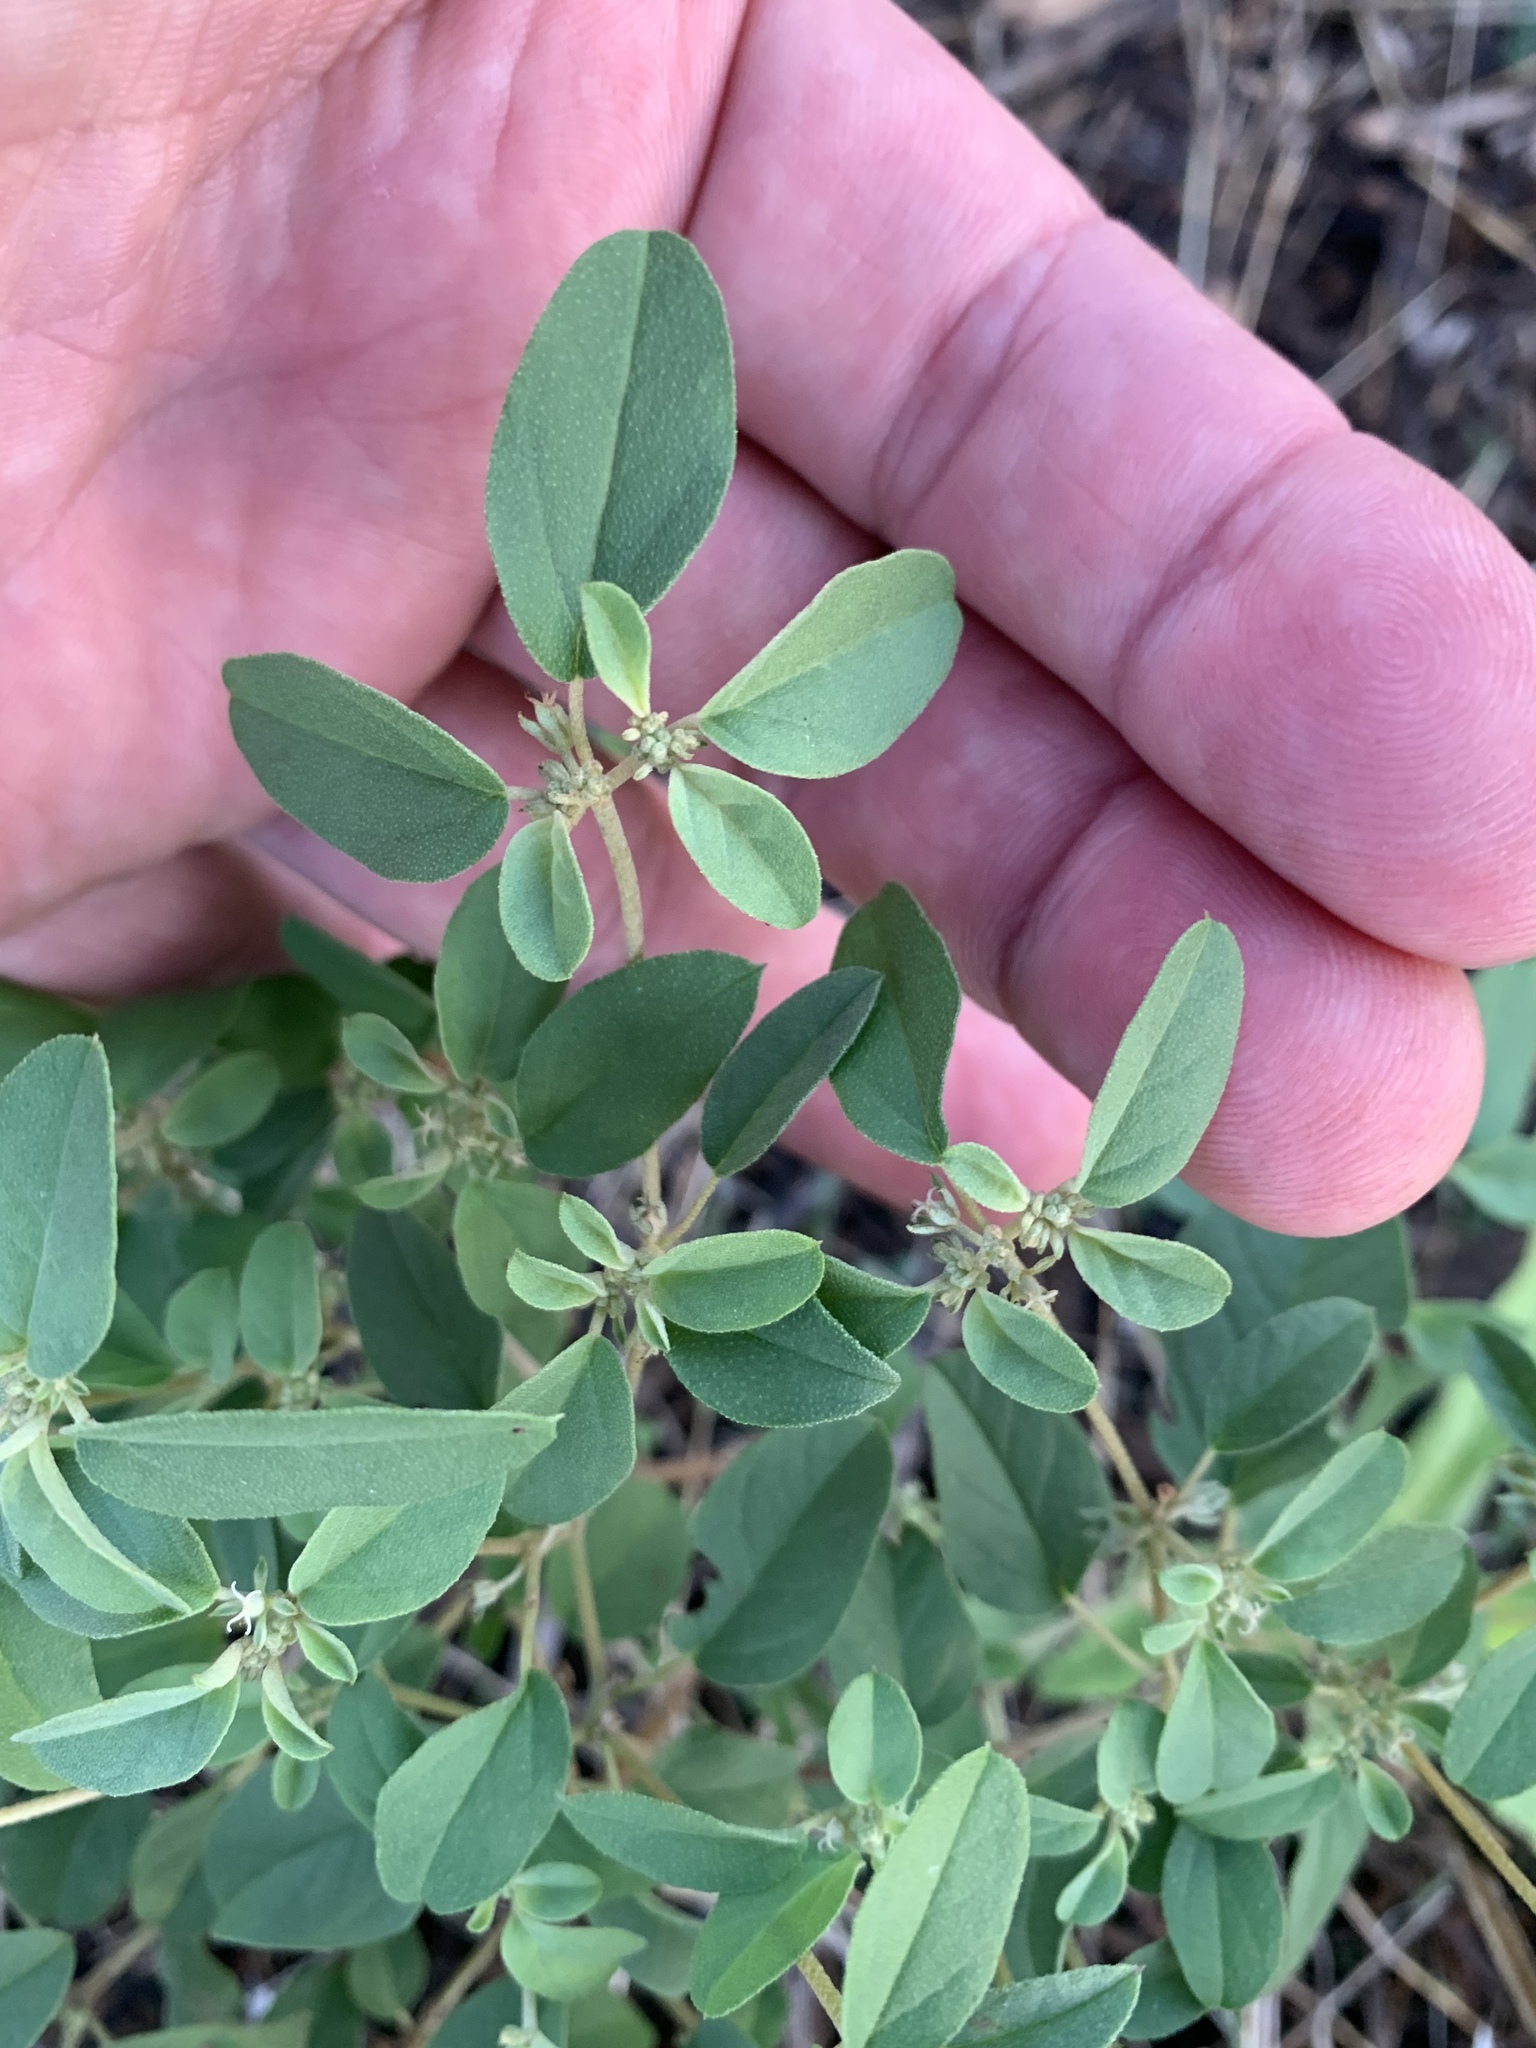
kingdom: Plantae
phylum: Tracheophyta
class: Magnoliopsida
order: Malpighiales
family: Euphorbiaceae
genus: Croton
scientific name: Croton monanthogynus
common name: One-seed croton
